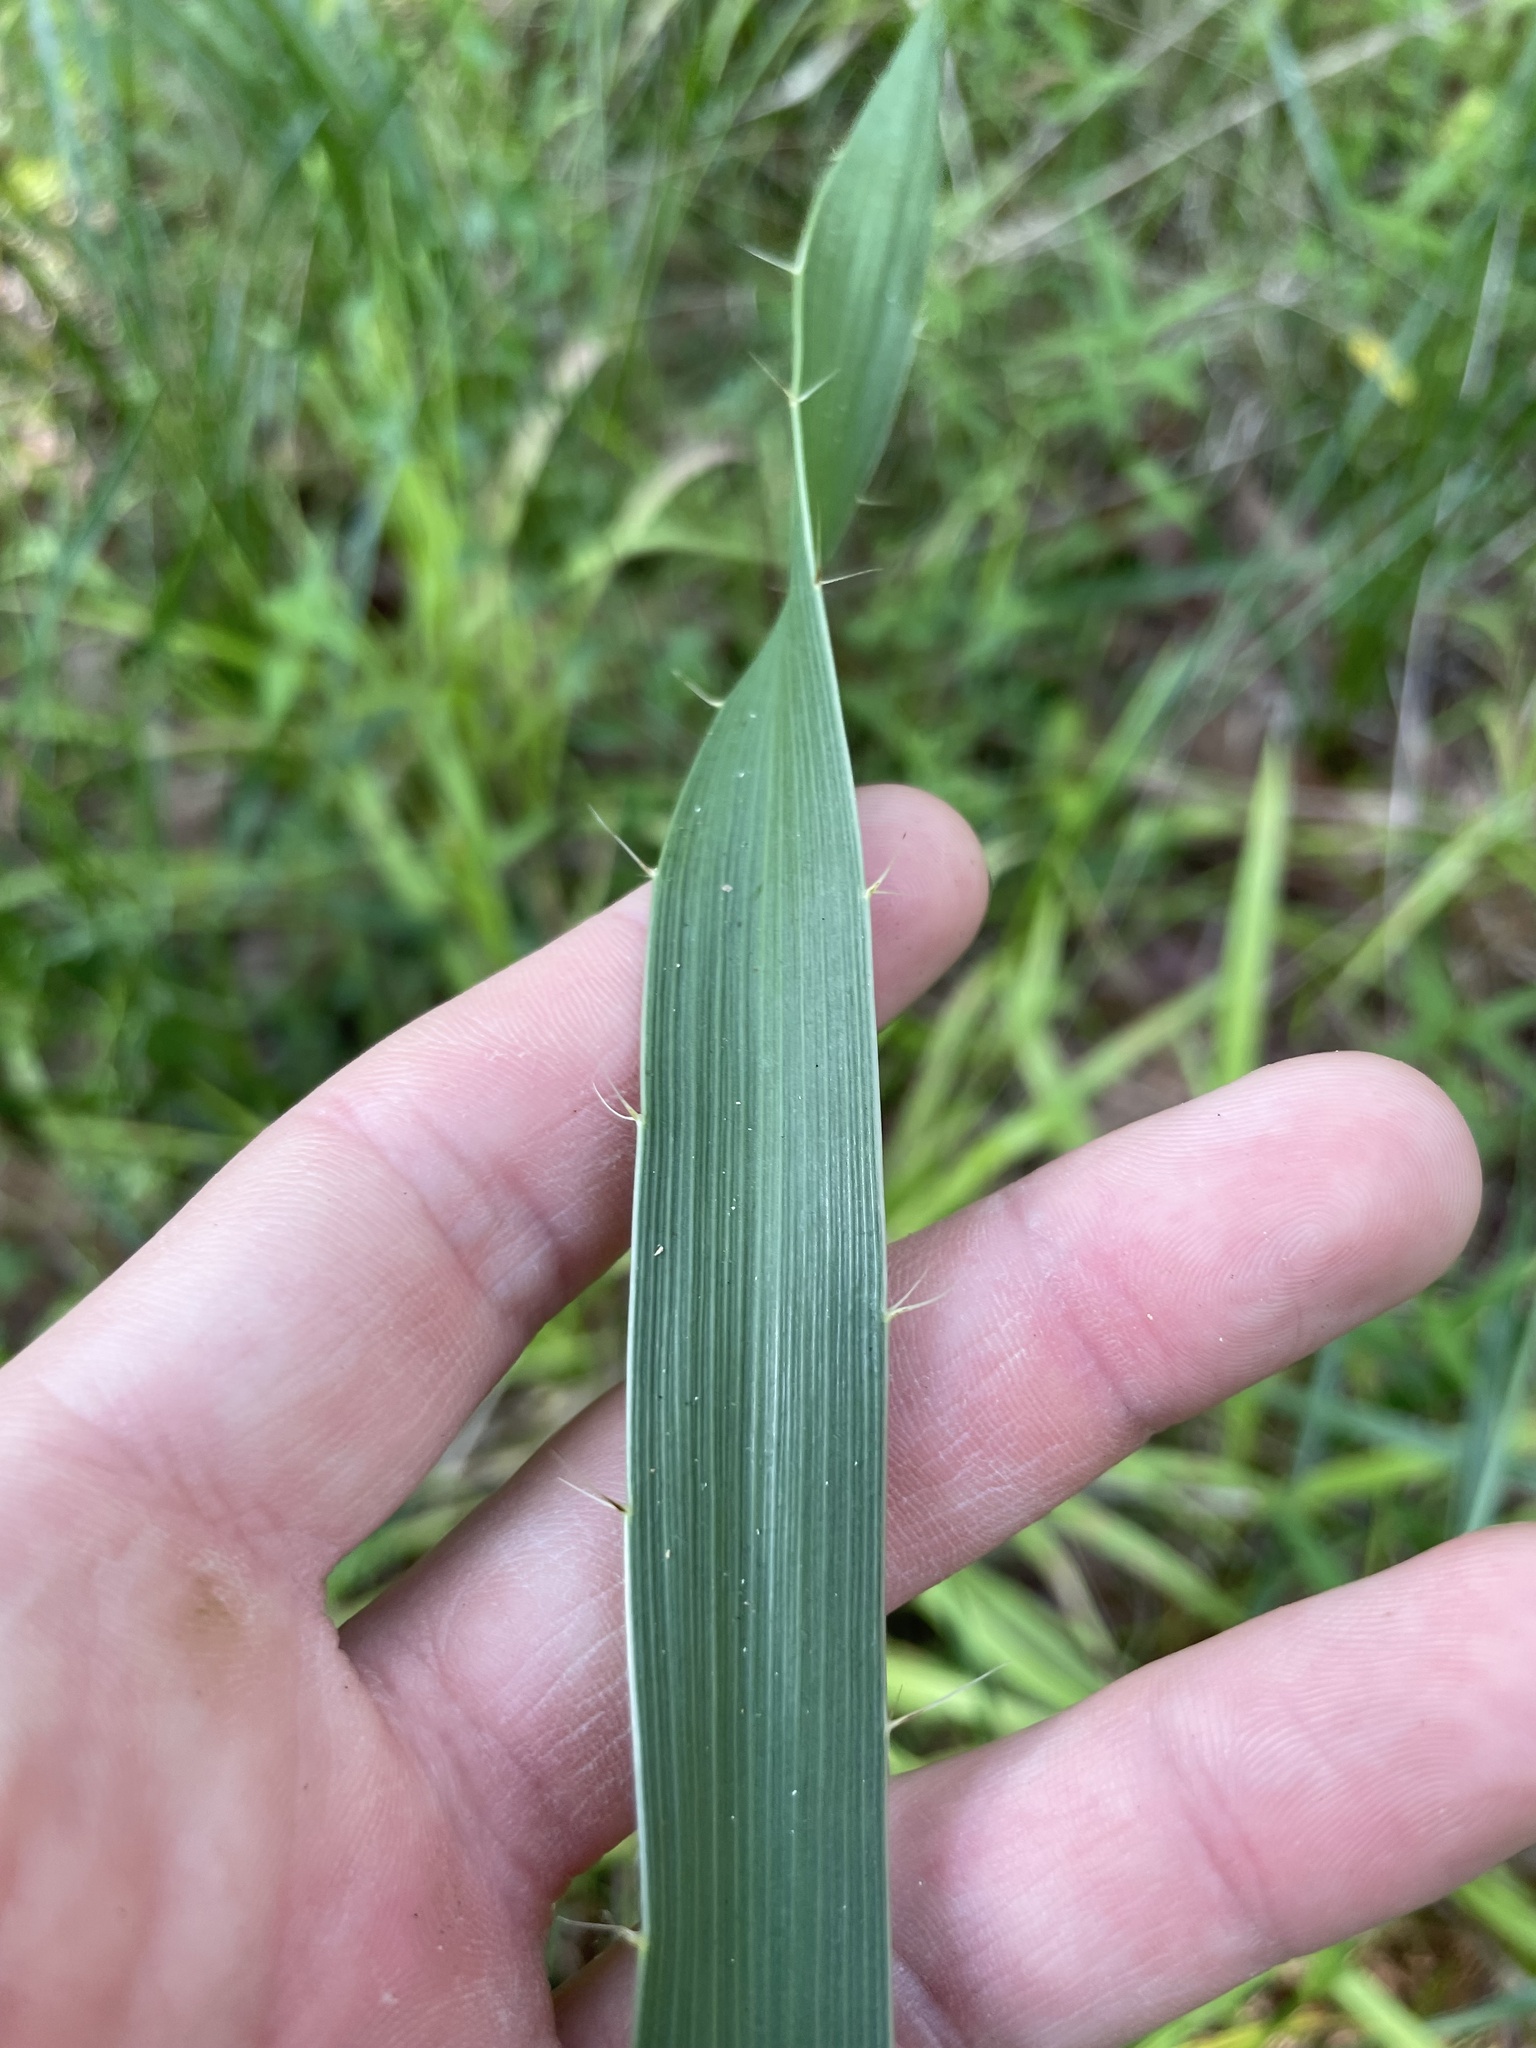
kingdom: Plantae
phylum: Tracheophyta
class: Magnoliopsida
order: Apiales
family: Apiaceae
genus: Eryngium
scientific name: Eryngium yuccifolium
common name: Button eryngo
